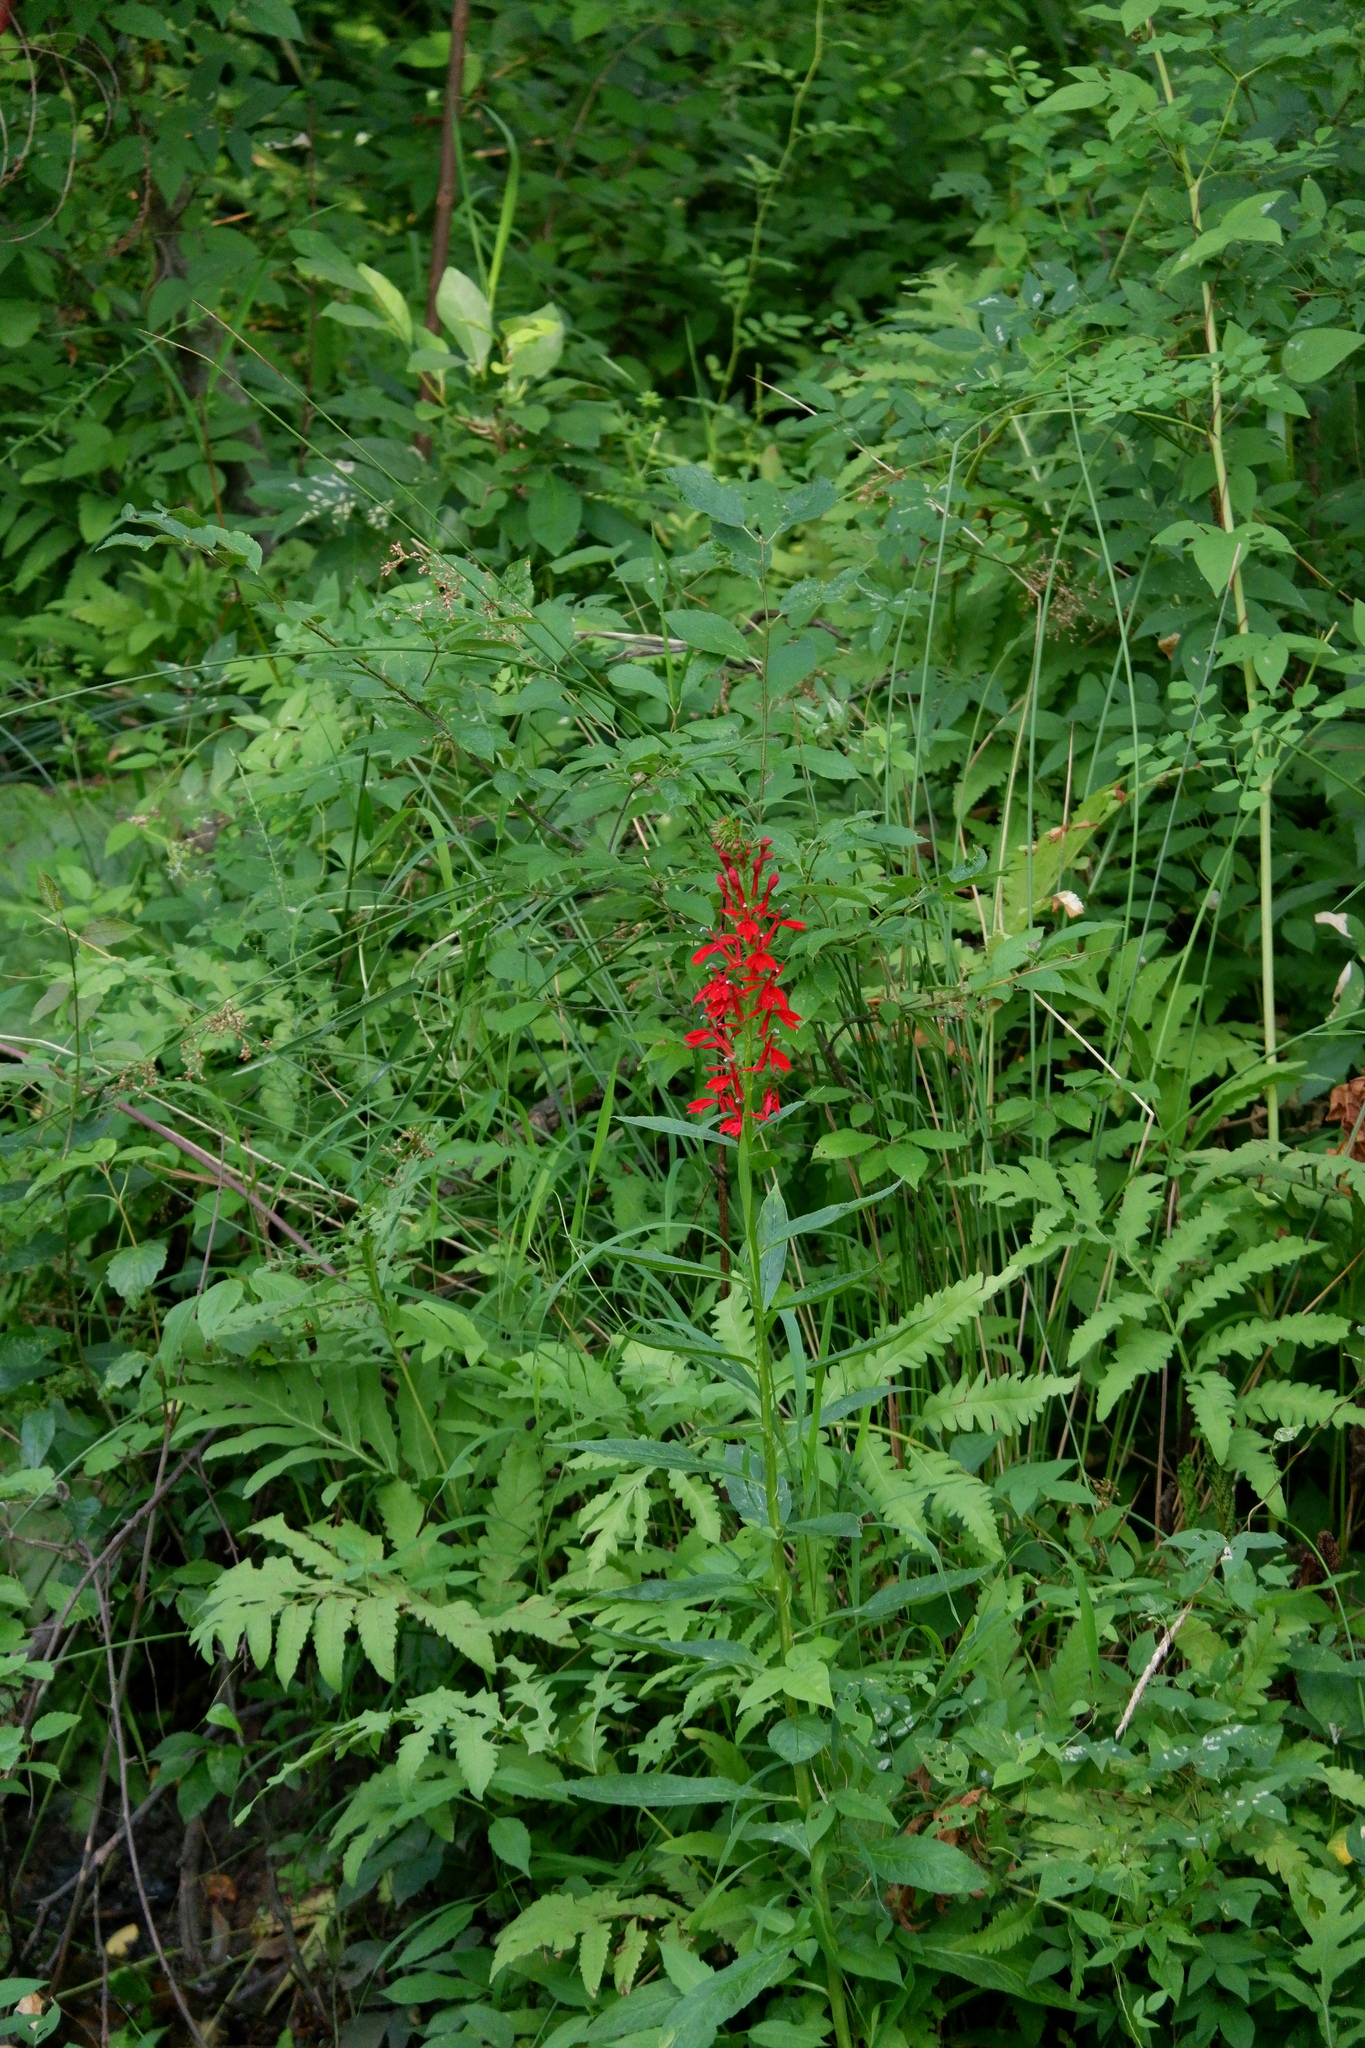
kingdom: Plantae
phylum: Tracheophyta
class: Magnoliopsida
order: Asterales
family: Campanulaceae
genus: Lobelia
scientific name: Lobelia cardinalis
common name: Cardinal flower
